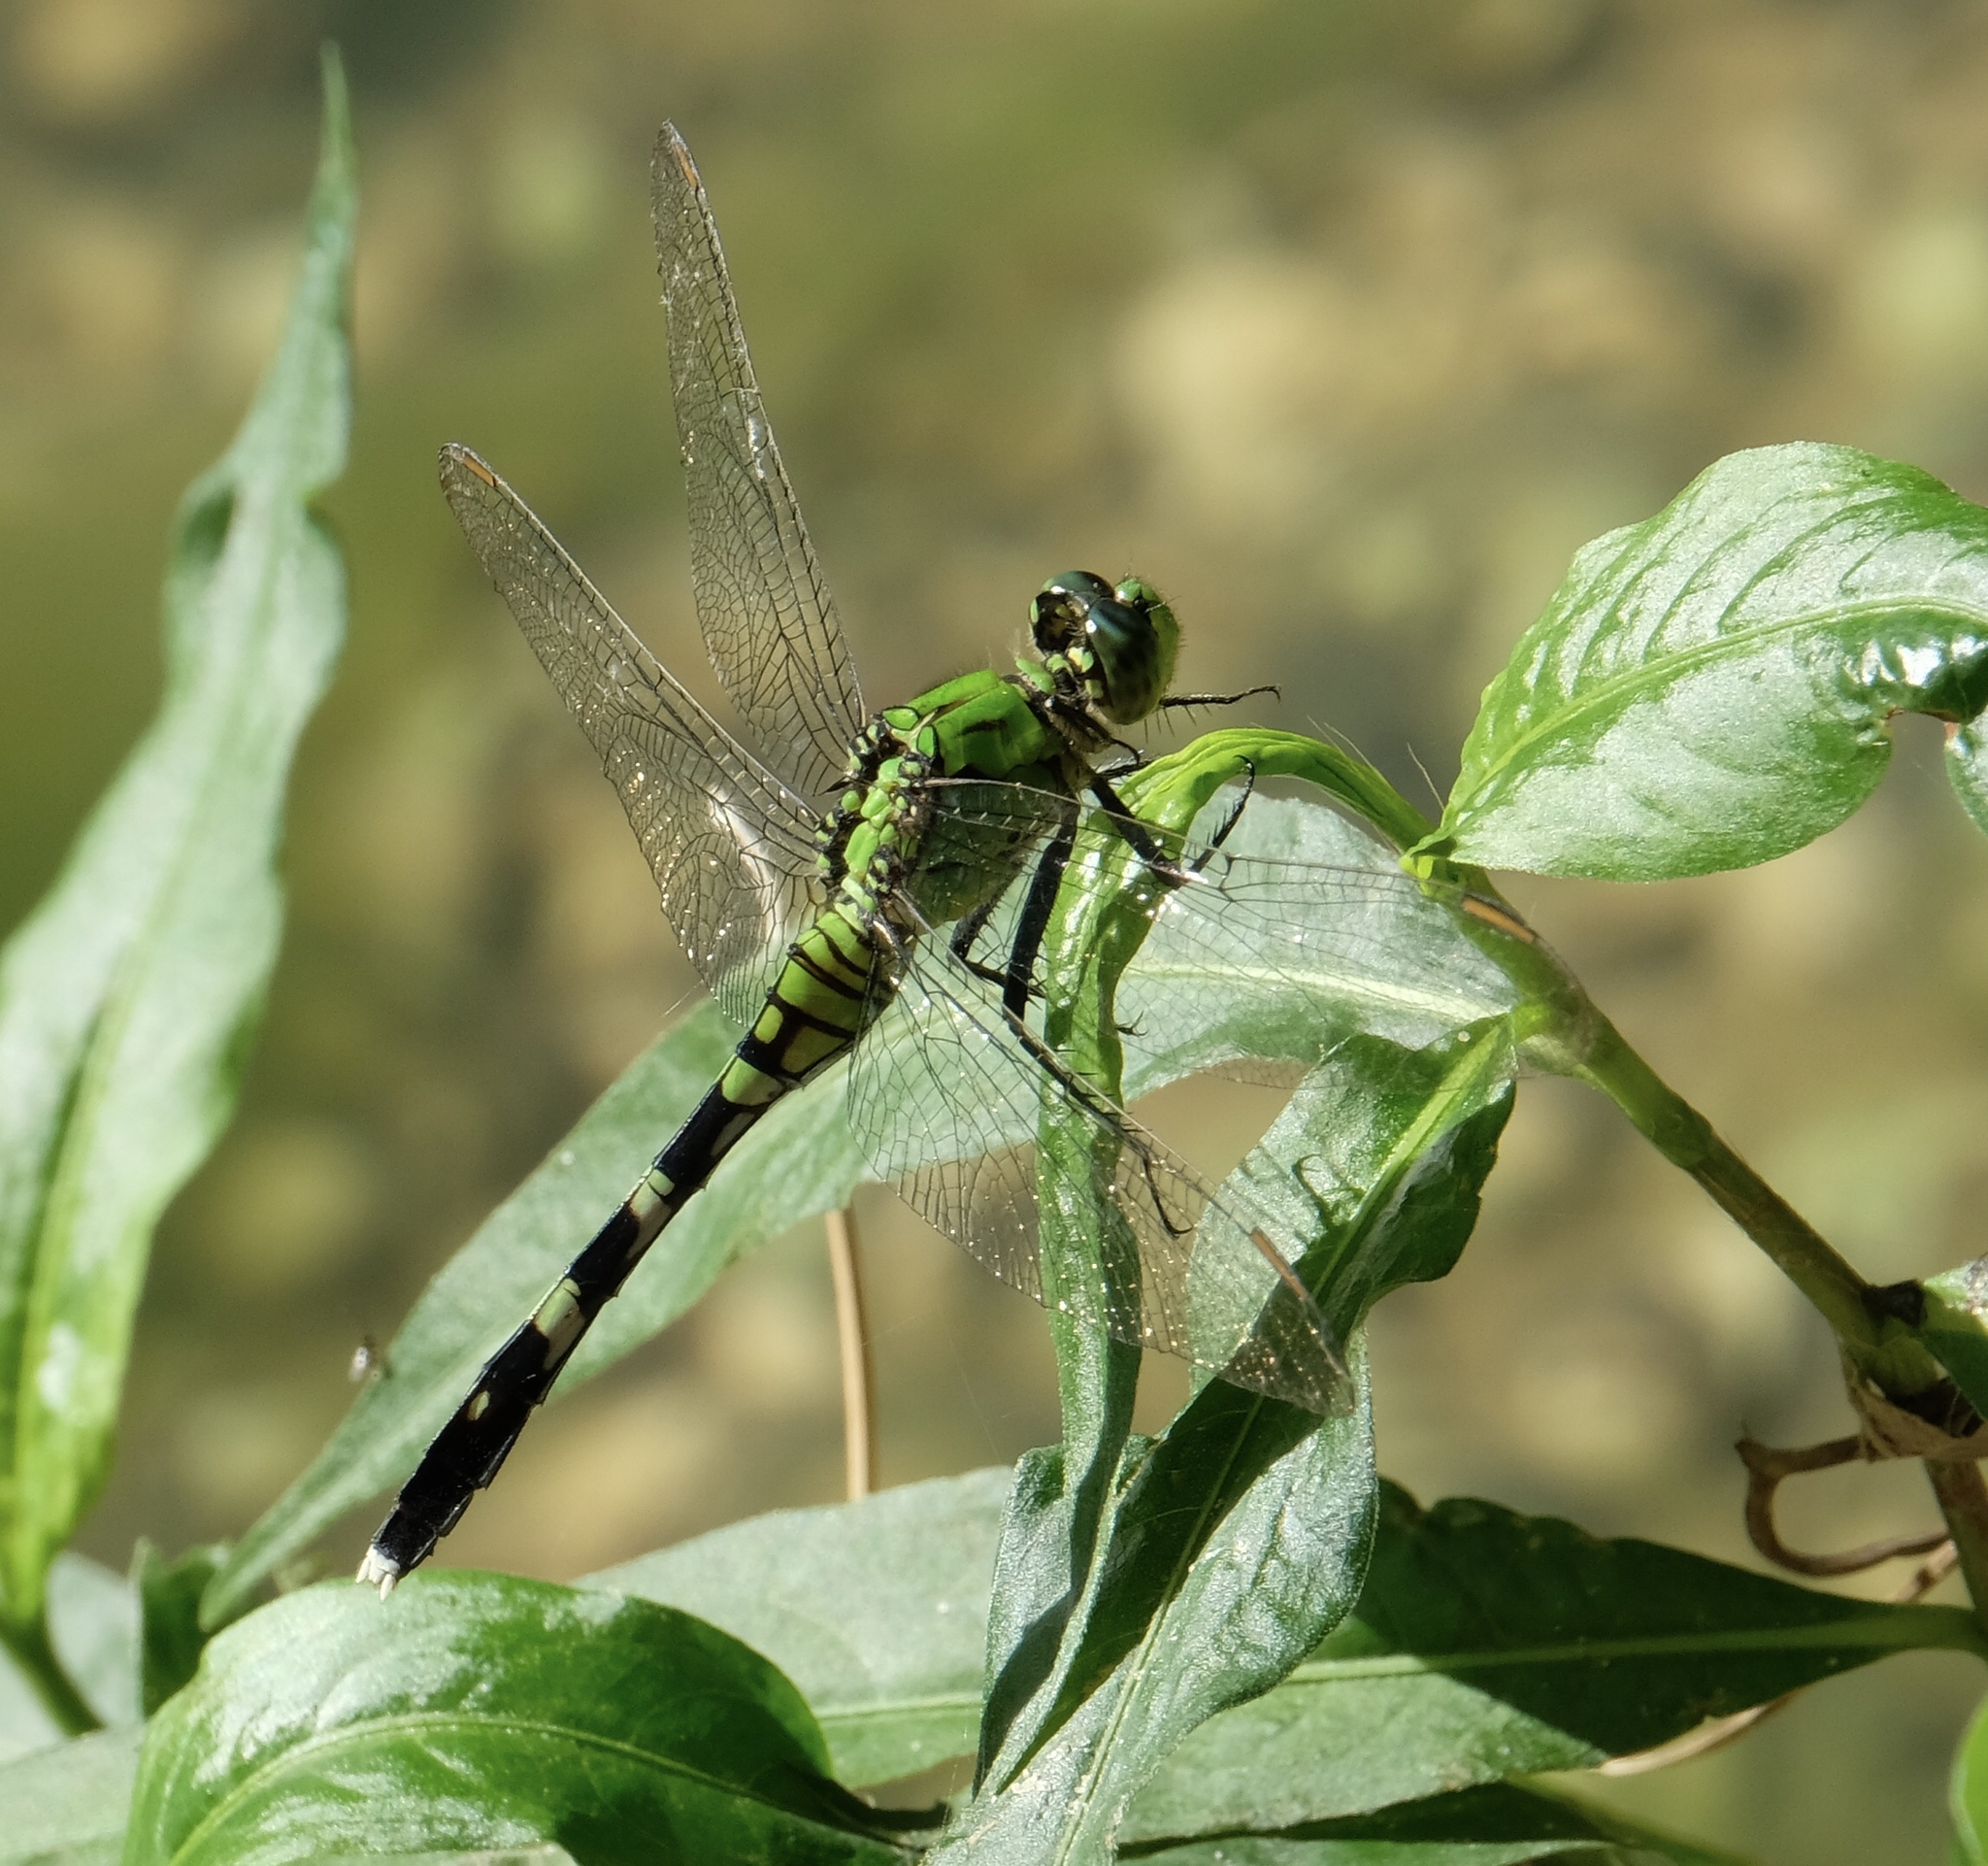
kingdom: Animalia
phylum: Arthropoda
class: Insecta
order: Odonata
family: Libellulidae
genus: Erythemis
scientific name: Erythemis simplicicollis
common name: Eastern pondhawk
